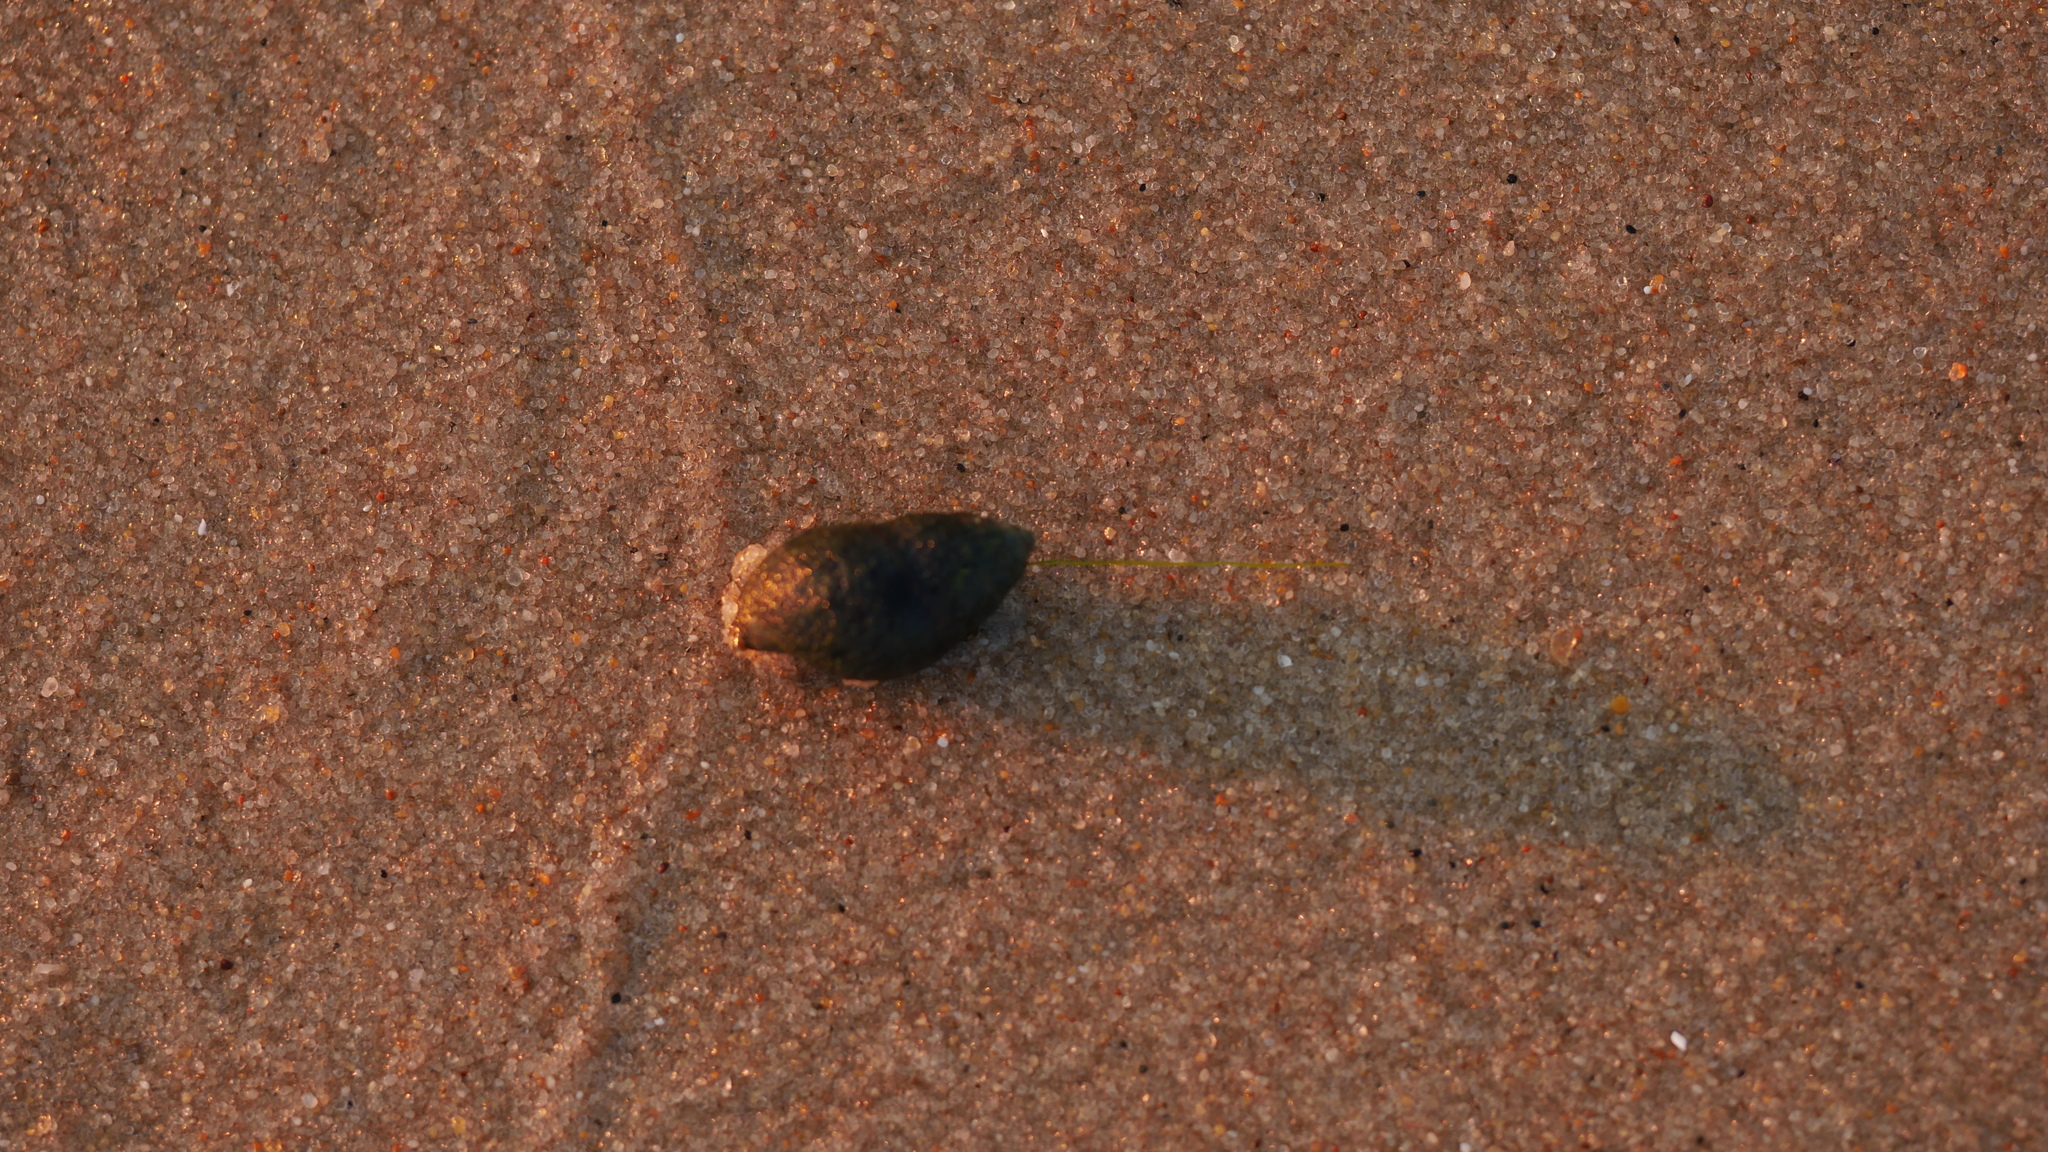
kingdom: Animalia
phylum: Mollusca
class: Gastropoda
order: Neogastropoda
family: Nassariidae
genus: Ilyanassa
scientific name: Ilyanassa obsoleta
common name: Eastern mudsnail
